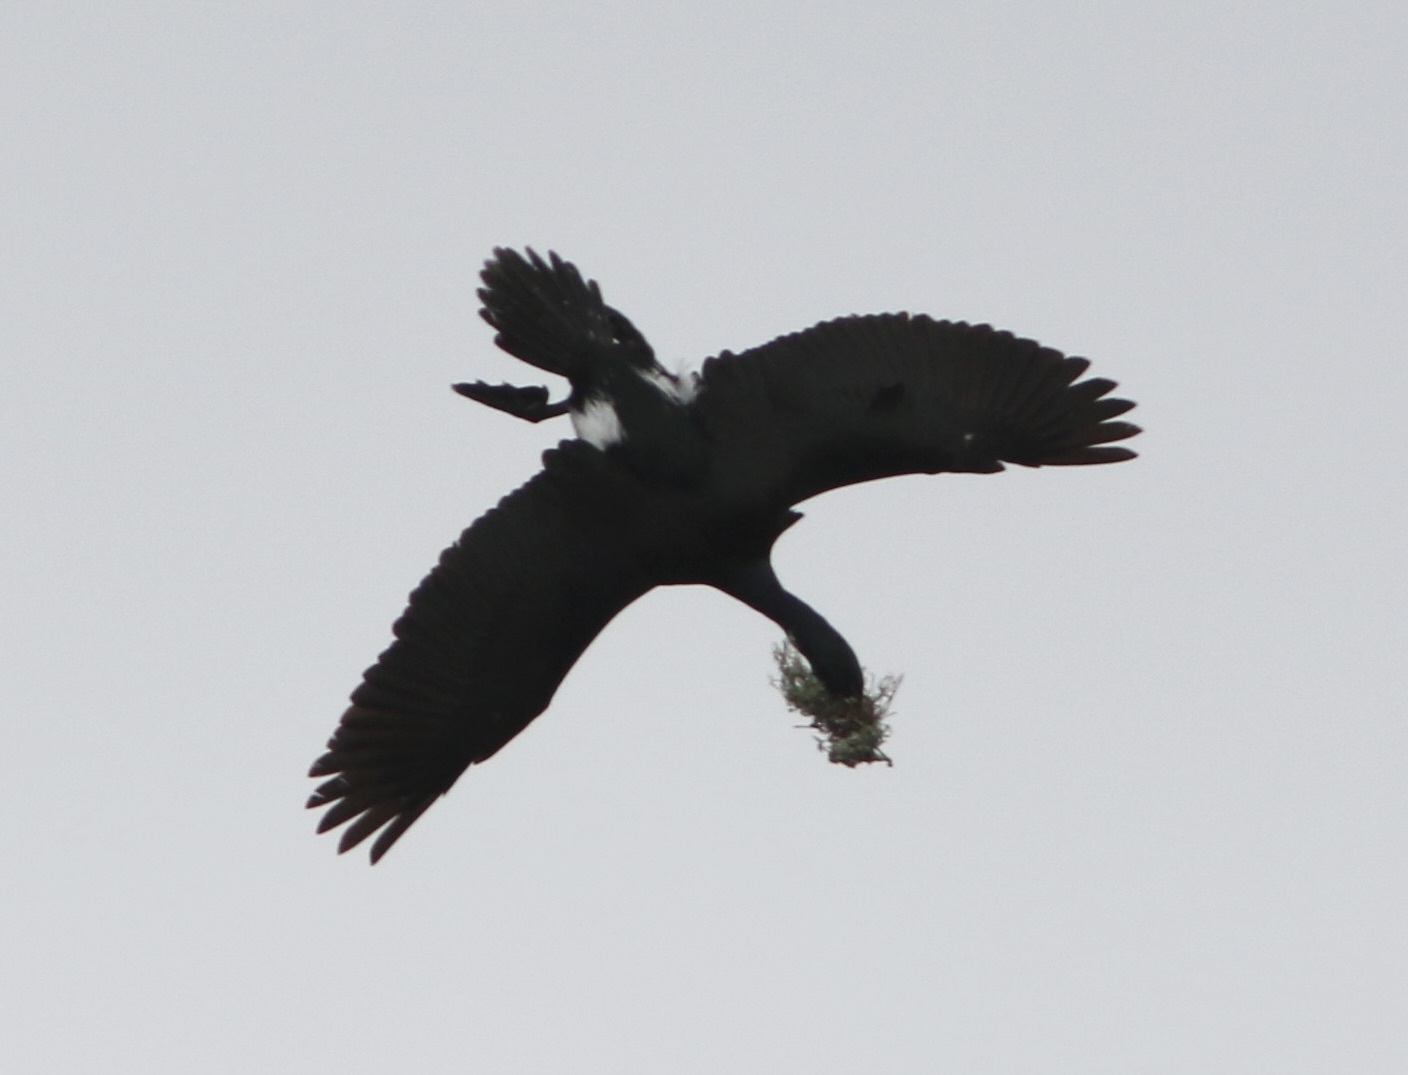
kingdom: Animalia
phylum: Chordata
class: Aves
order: Suliformes
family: Phalacrocoracidae
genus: Phalacrocorax
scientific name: Phalacrocorax pelagicus
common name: Pelagic cormorant
